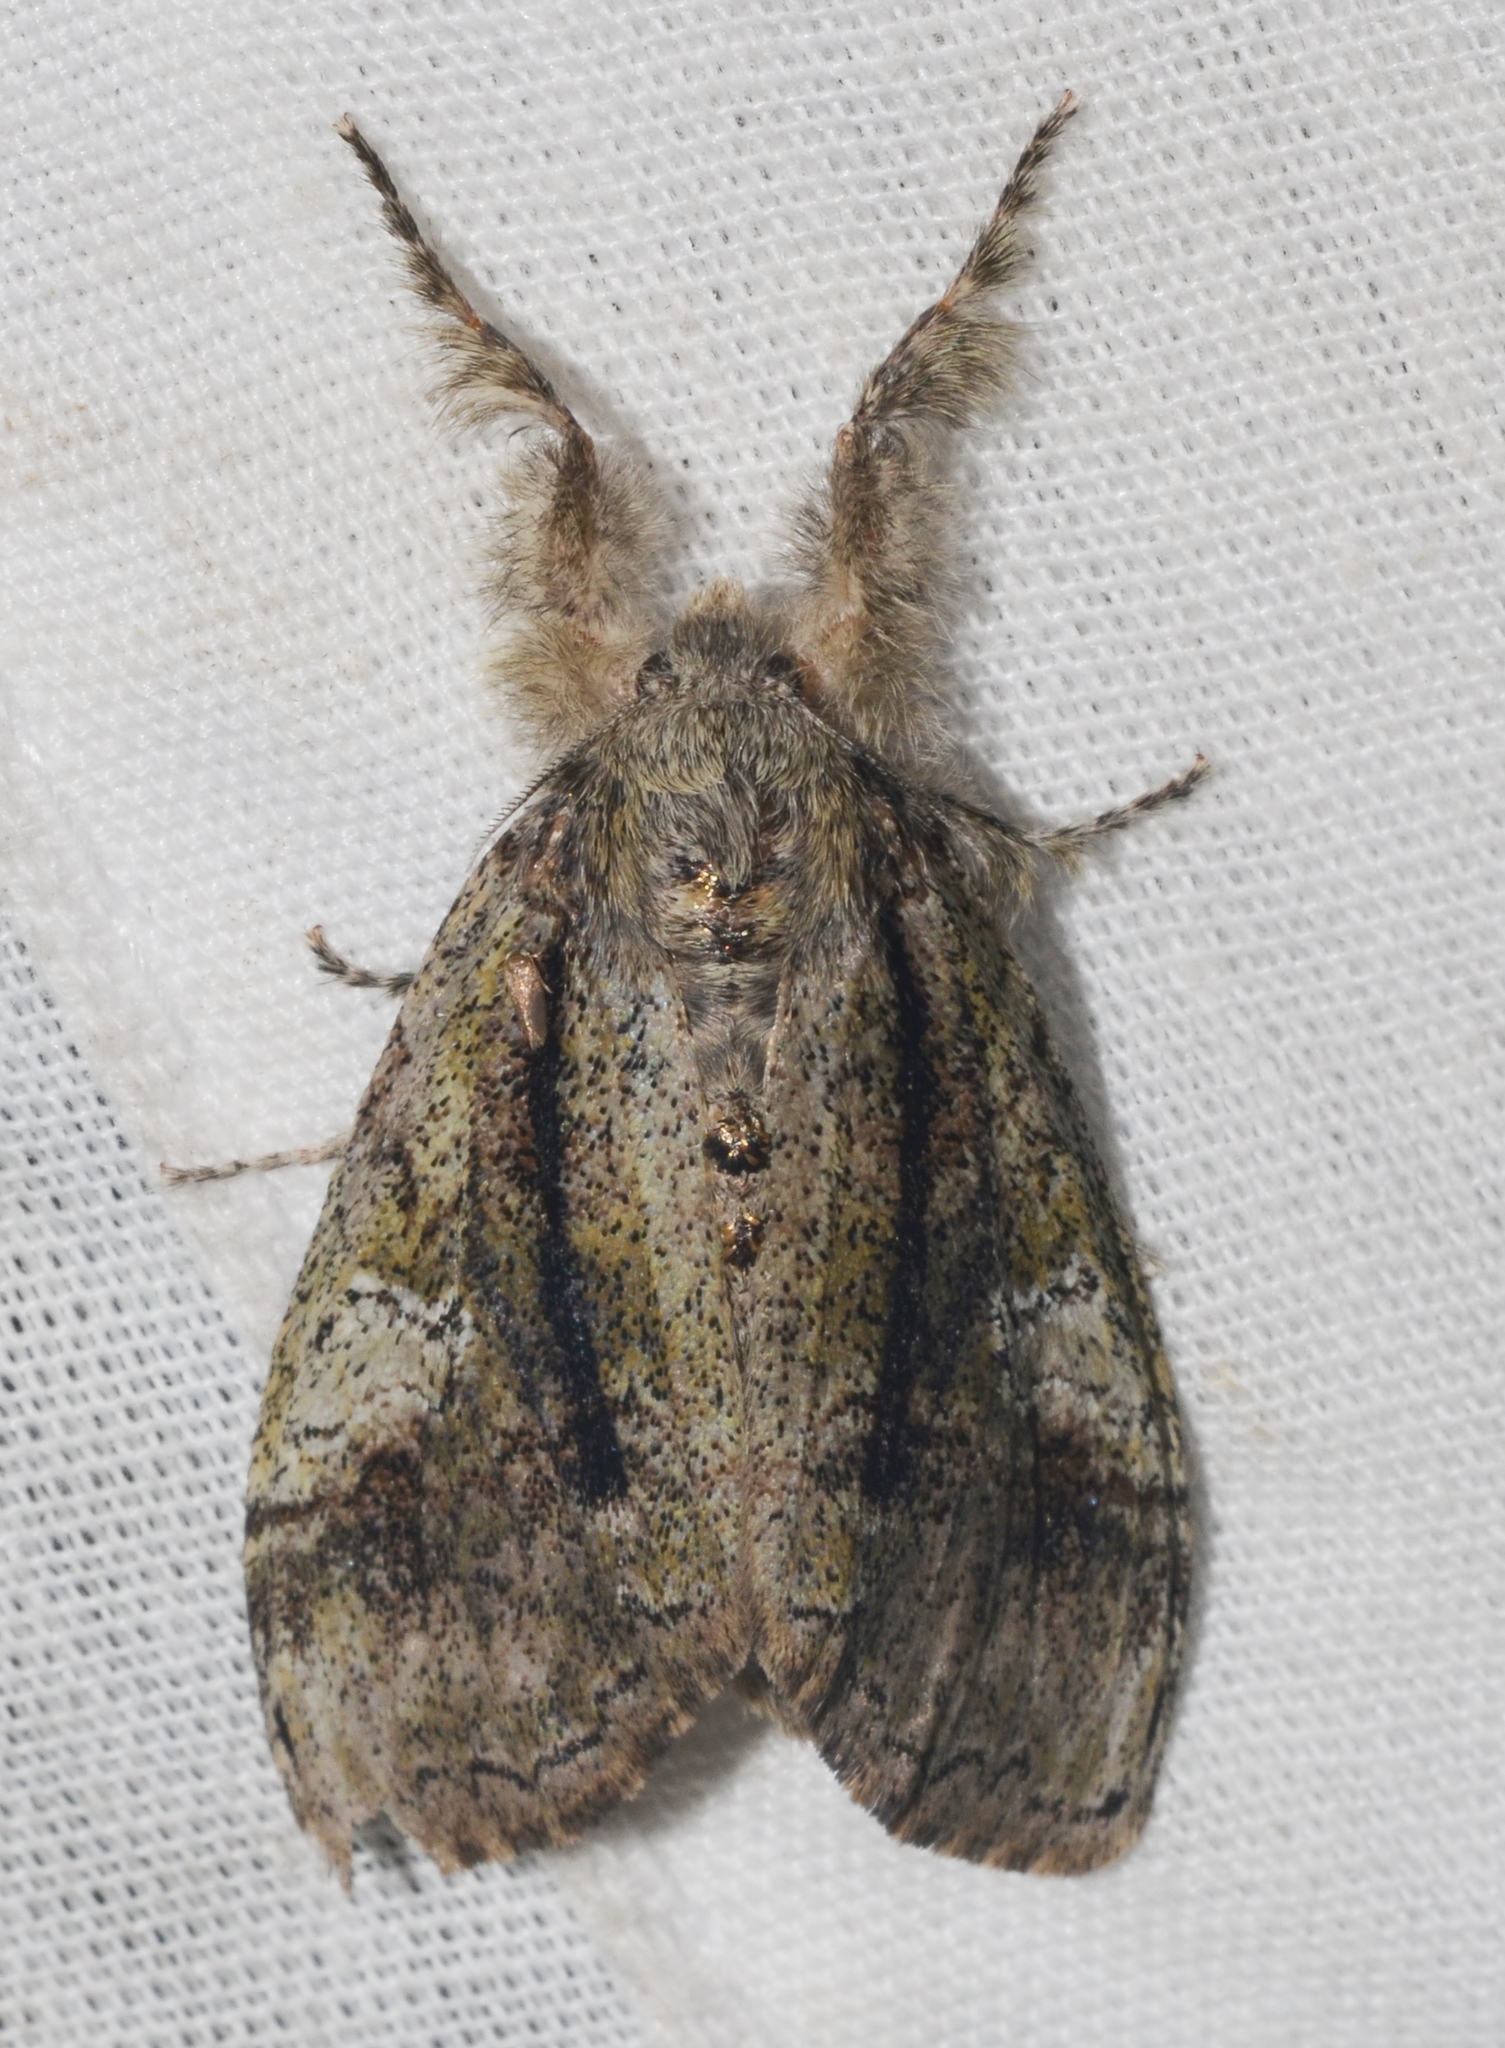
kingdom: Animalia
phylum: Arthropoda
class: Insecta
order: Lepidoptera
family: Erebidae
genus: Dasychira
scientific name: Dasychira tephra
